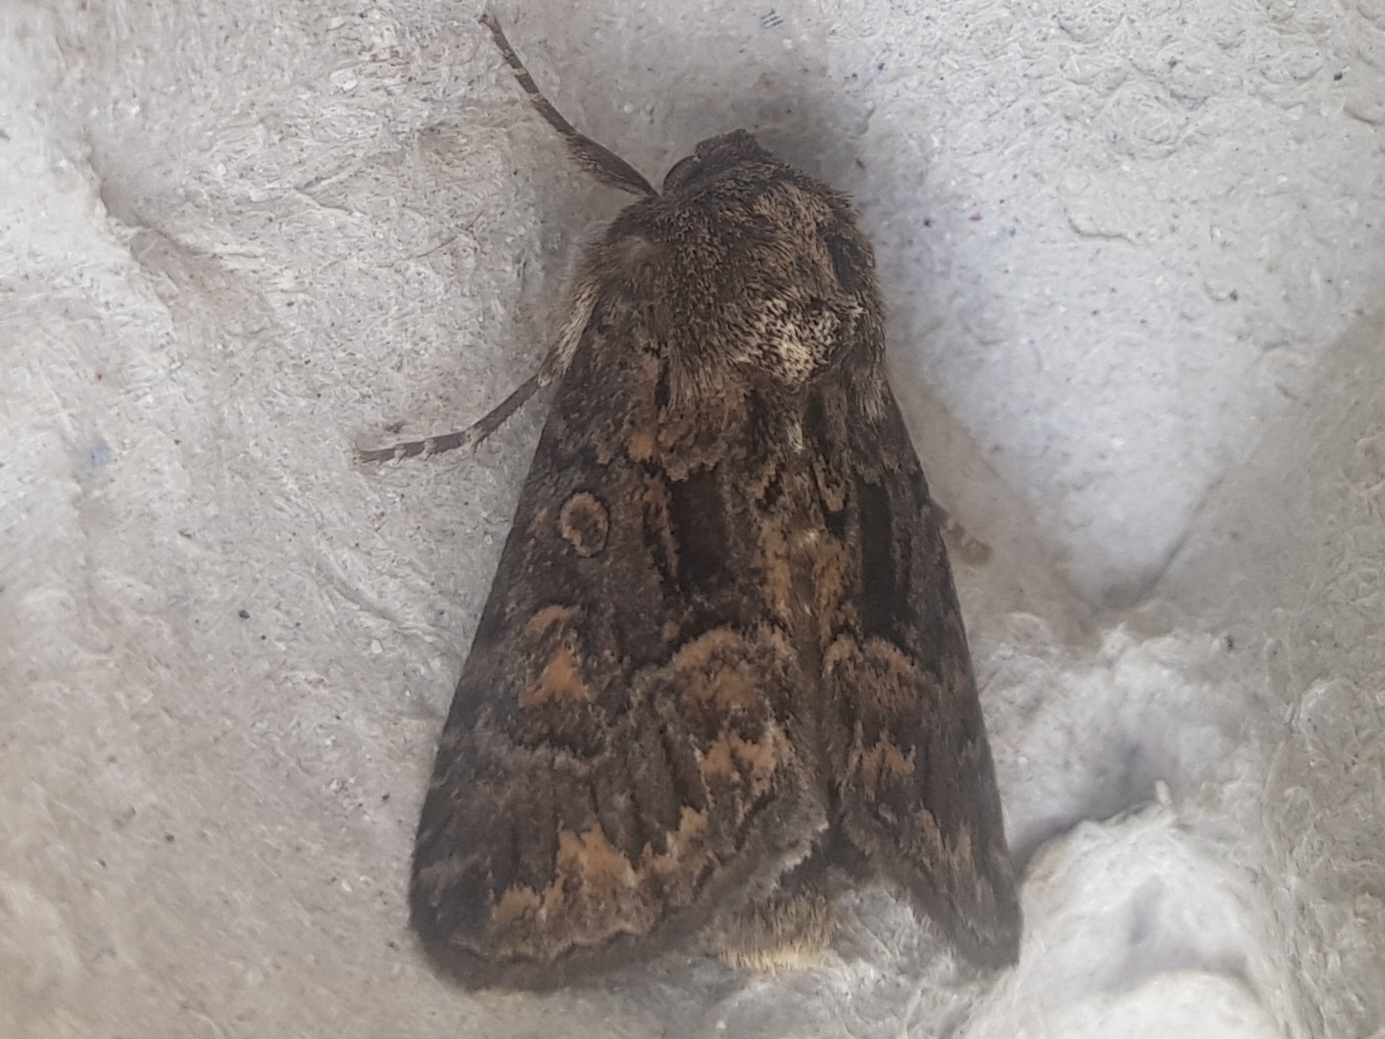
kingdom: Animalia
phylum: Arthropoda
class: Insecta
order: Lepidoptera
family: Noctuidae
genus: Thalpophila
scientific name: Thalpophila matura
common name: Straw underwing
